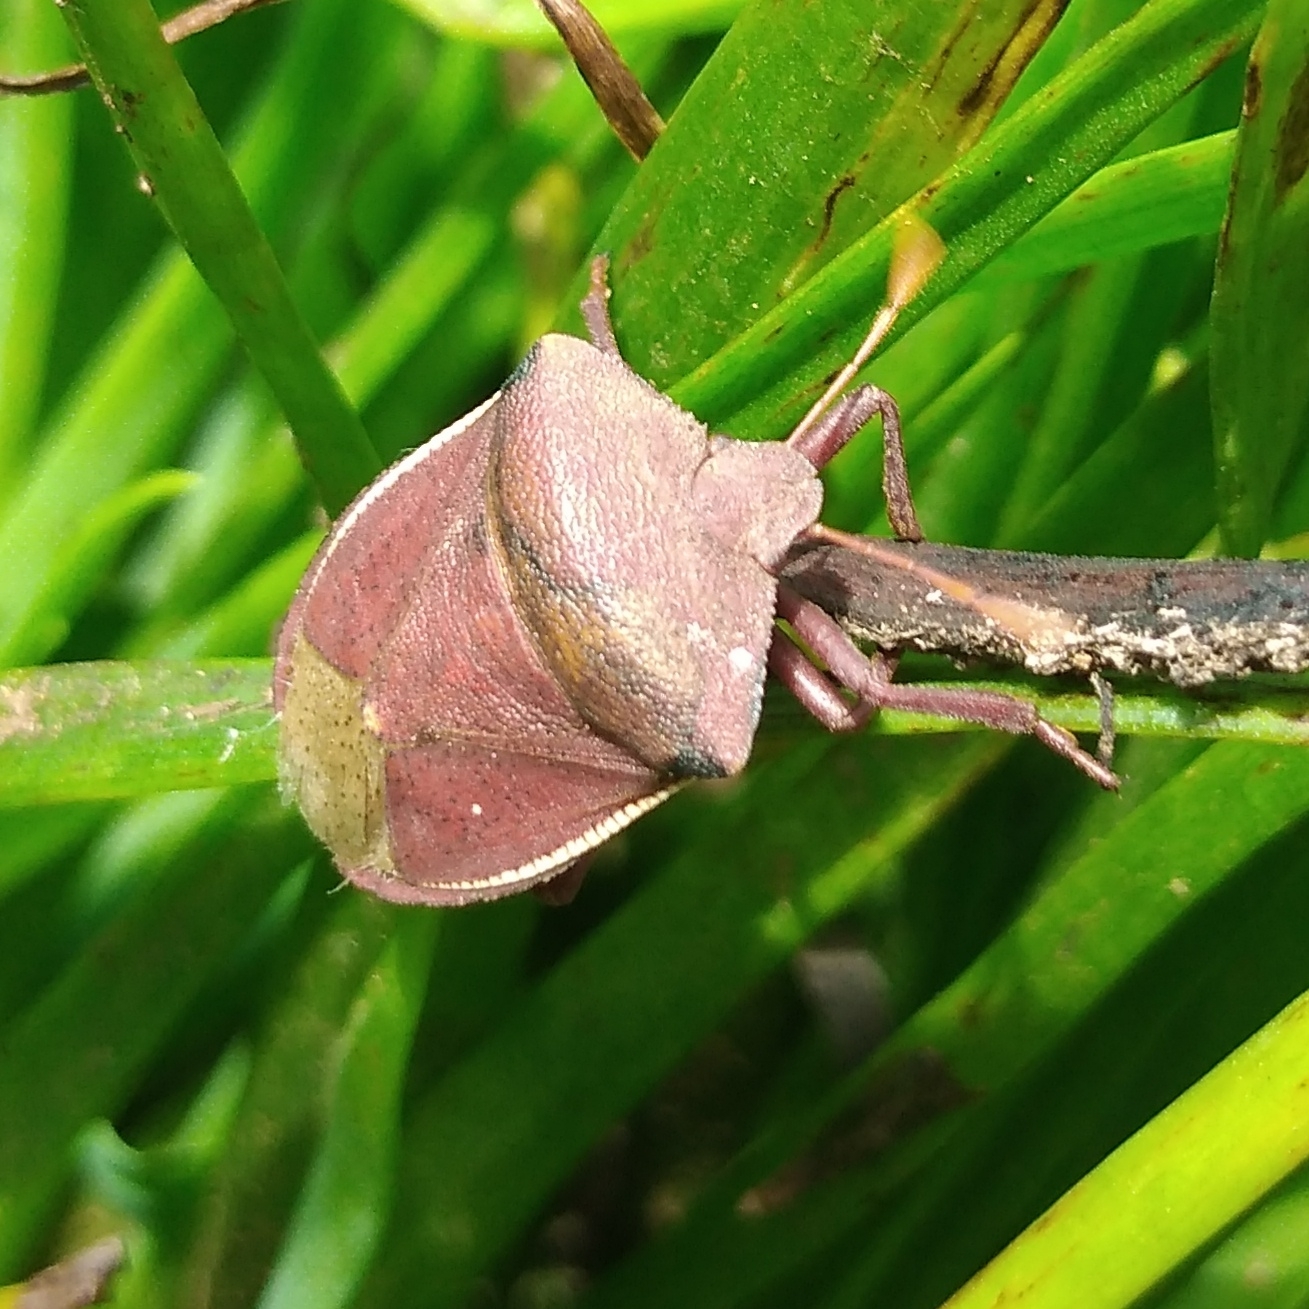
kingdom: Animalia
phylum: Arthropoda
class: Insecta
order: Hemiptera
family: Pentatomidae
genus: Basicryptus
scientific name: Basicryptus costalis
